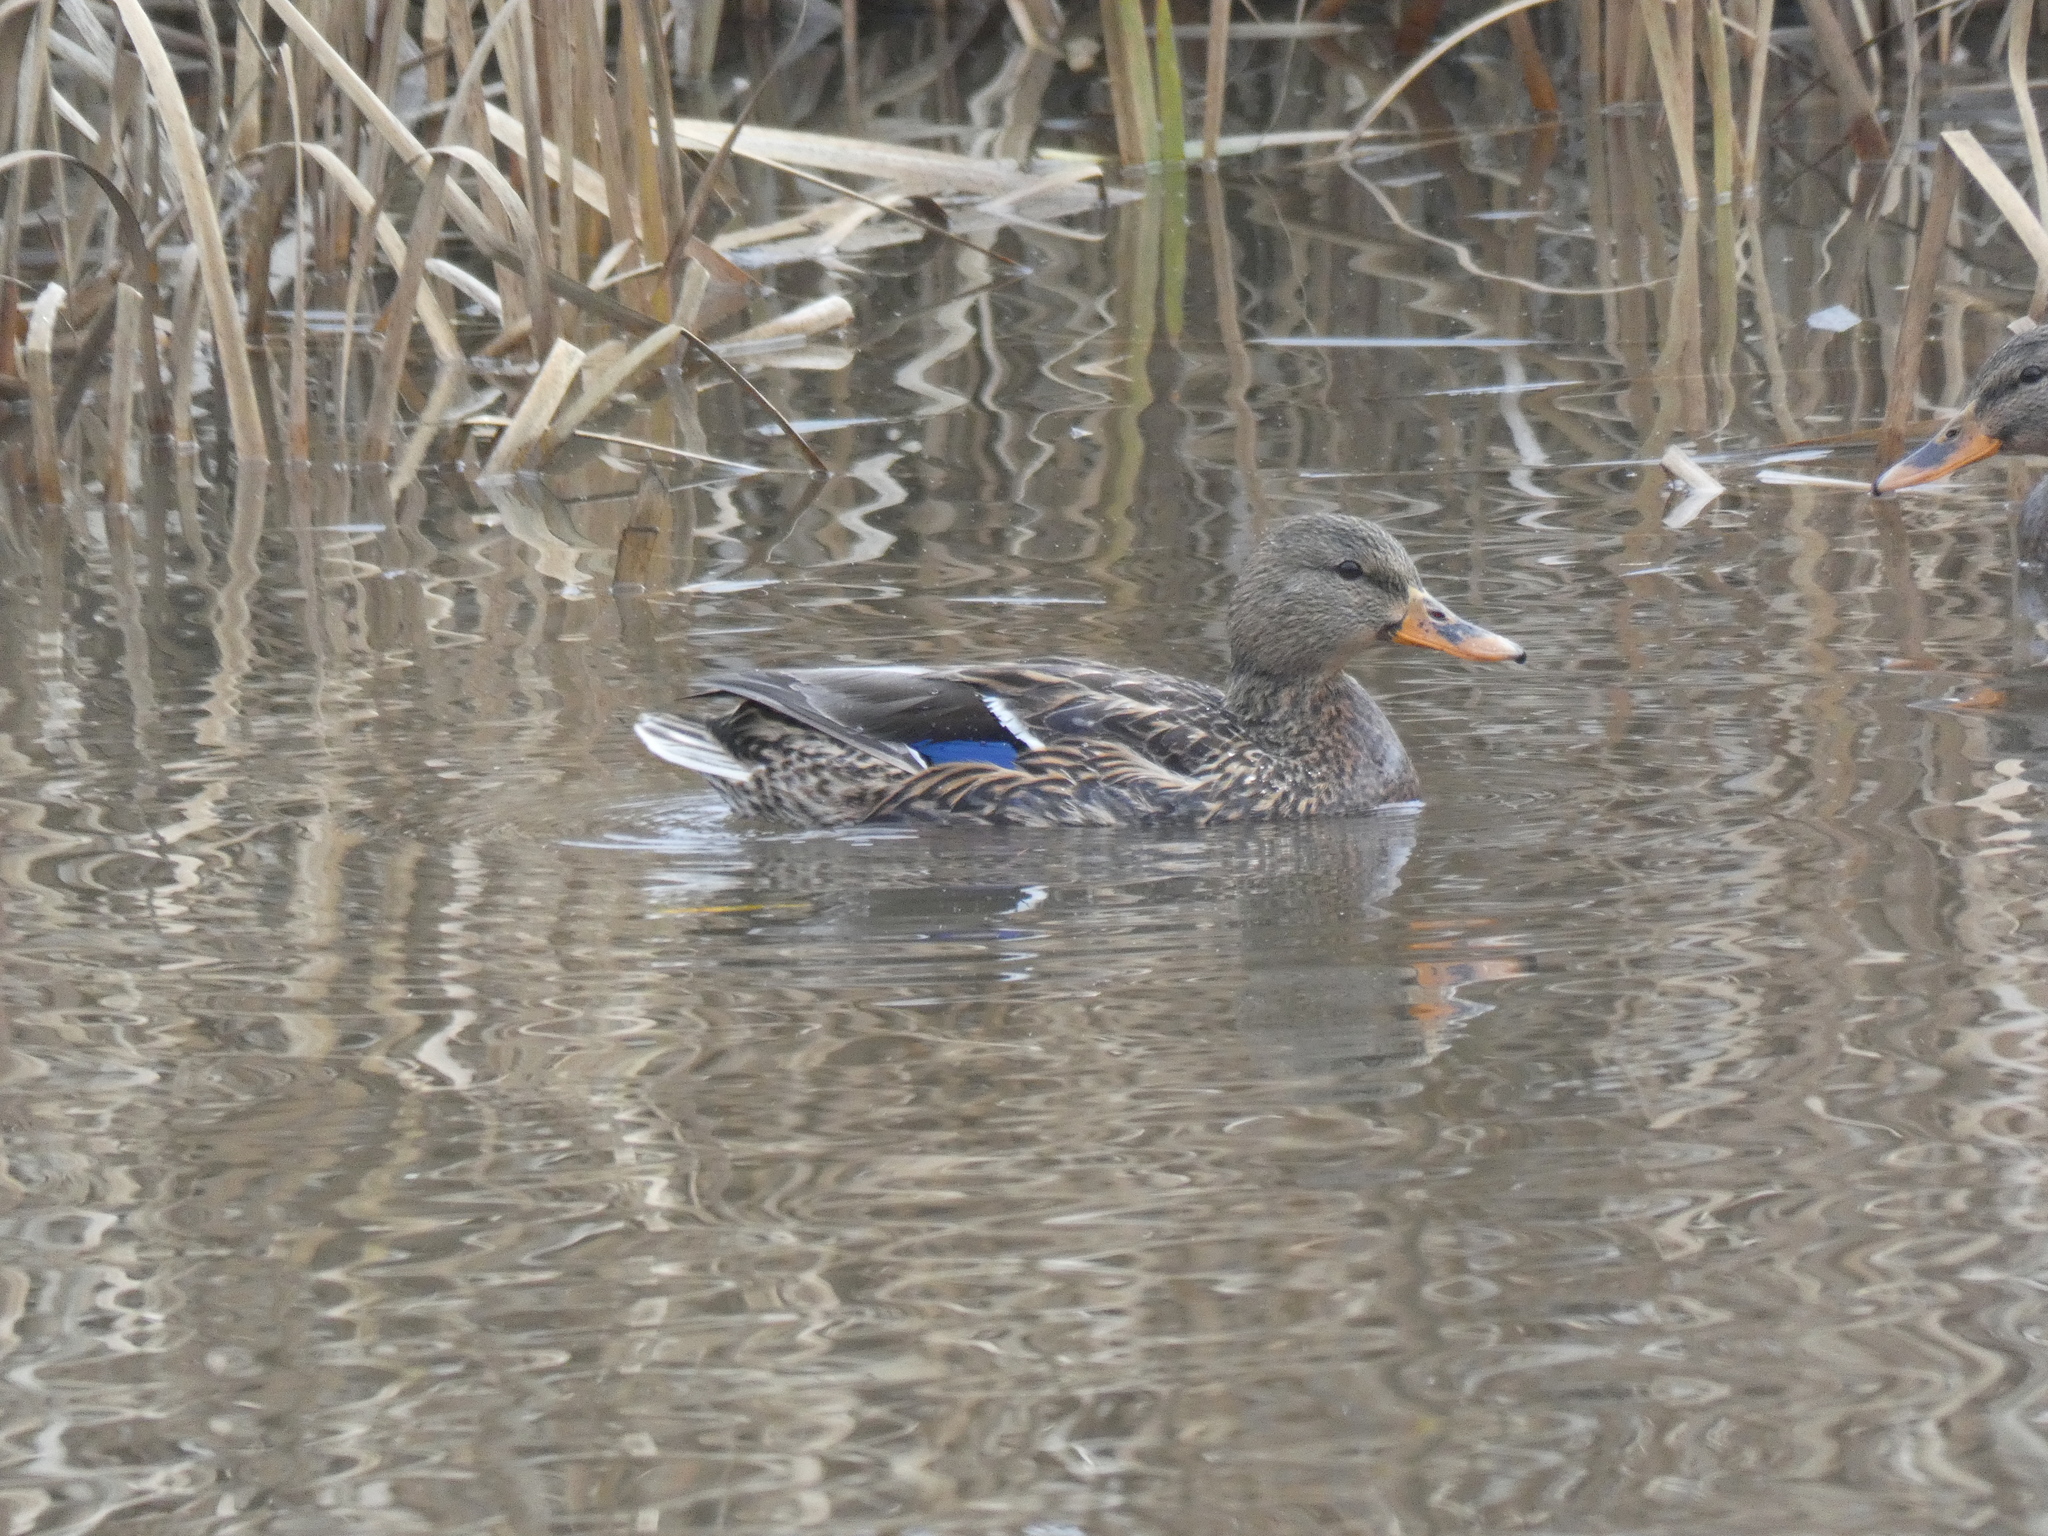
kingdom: Animalia
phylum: Chordata
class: Aves
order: Anseriformes
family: Anatidae
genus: Anas
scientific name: Anas platyrhynchos
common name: Mallard
